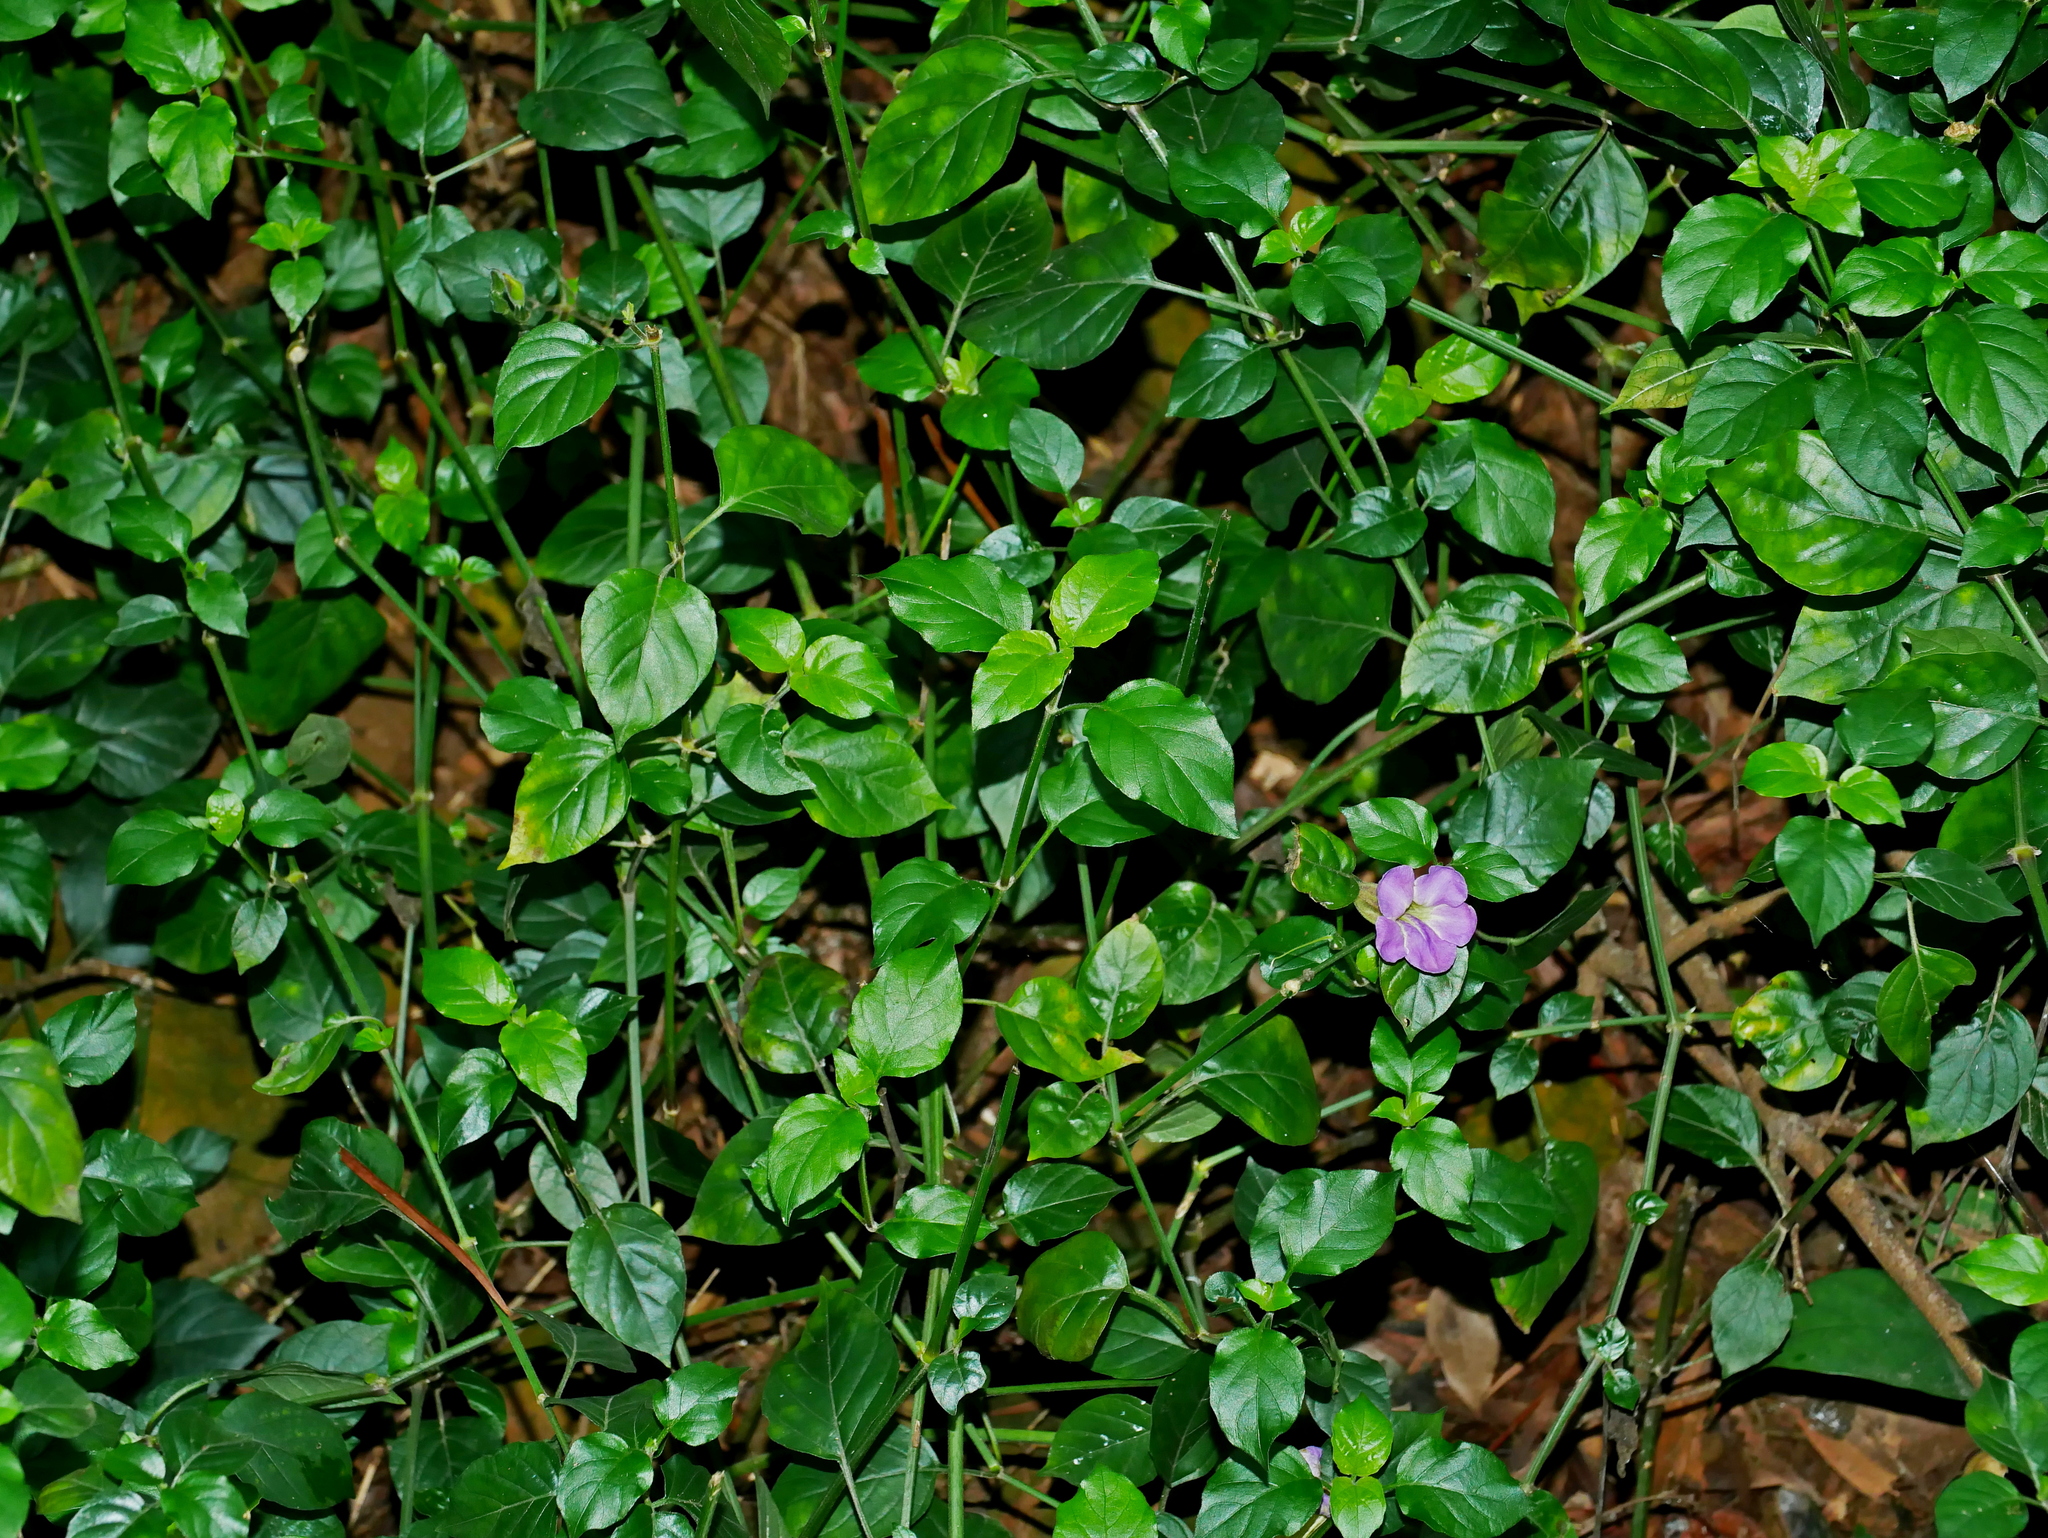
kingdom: Plantae
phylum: Tracheophyta
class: Magnoliopsida
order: Lamiales
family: Acanthaceae
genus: Asystasia
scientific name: Asystasia gangetica
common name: Chinese violet
